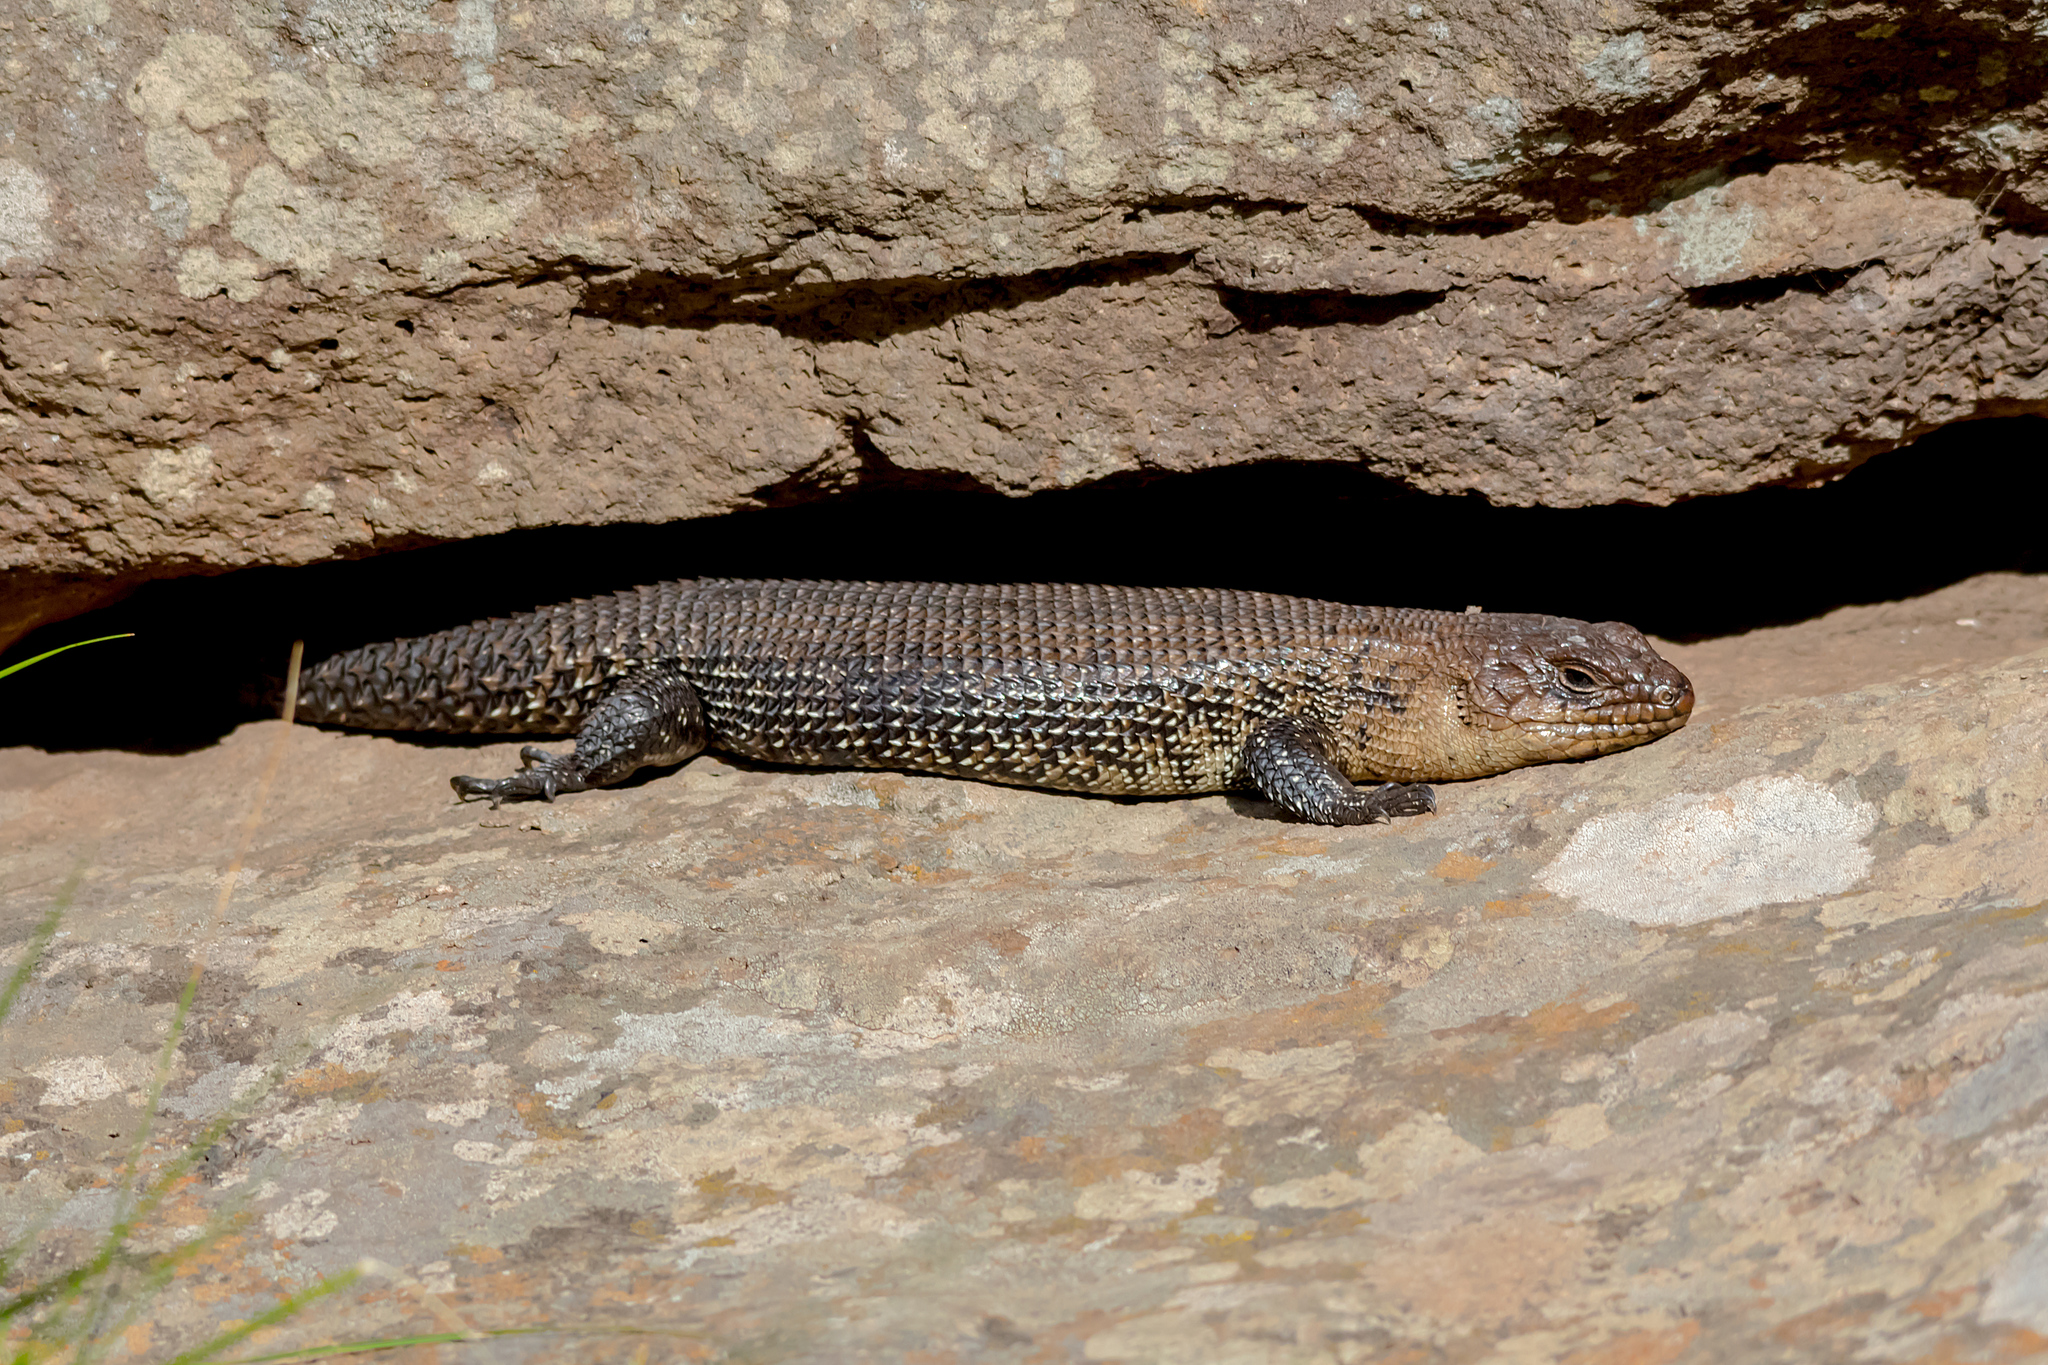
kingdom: Animalia
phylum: Chordata
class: Squamata
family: Scincidae
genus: Egernia
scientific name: Egernia cunninghami
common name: Cunningham's skink
